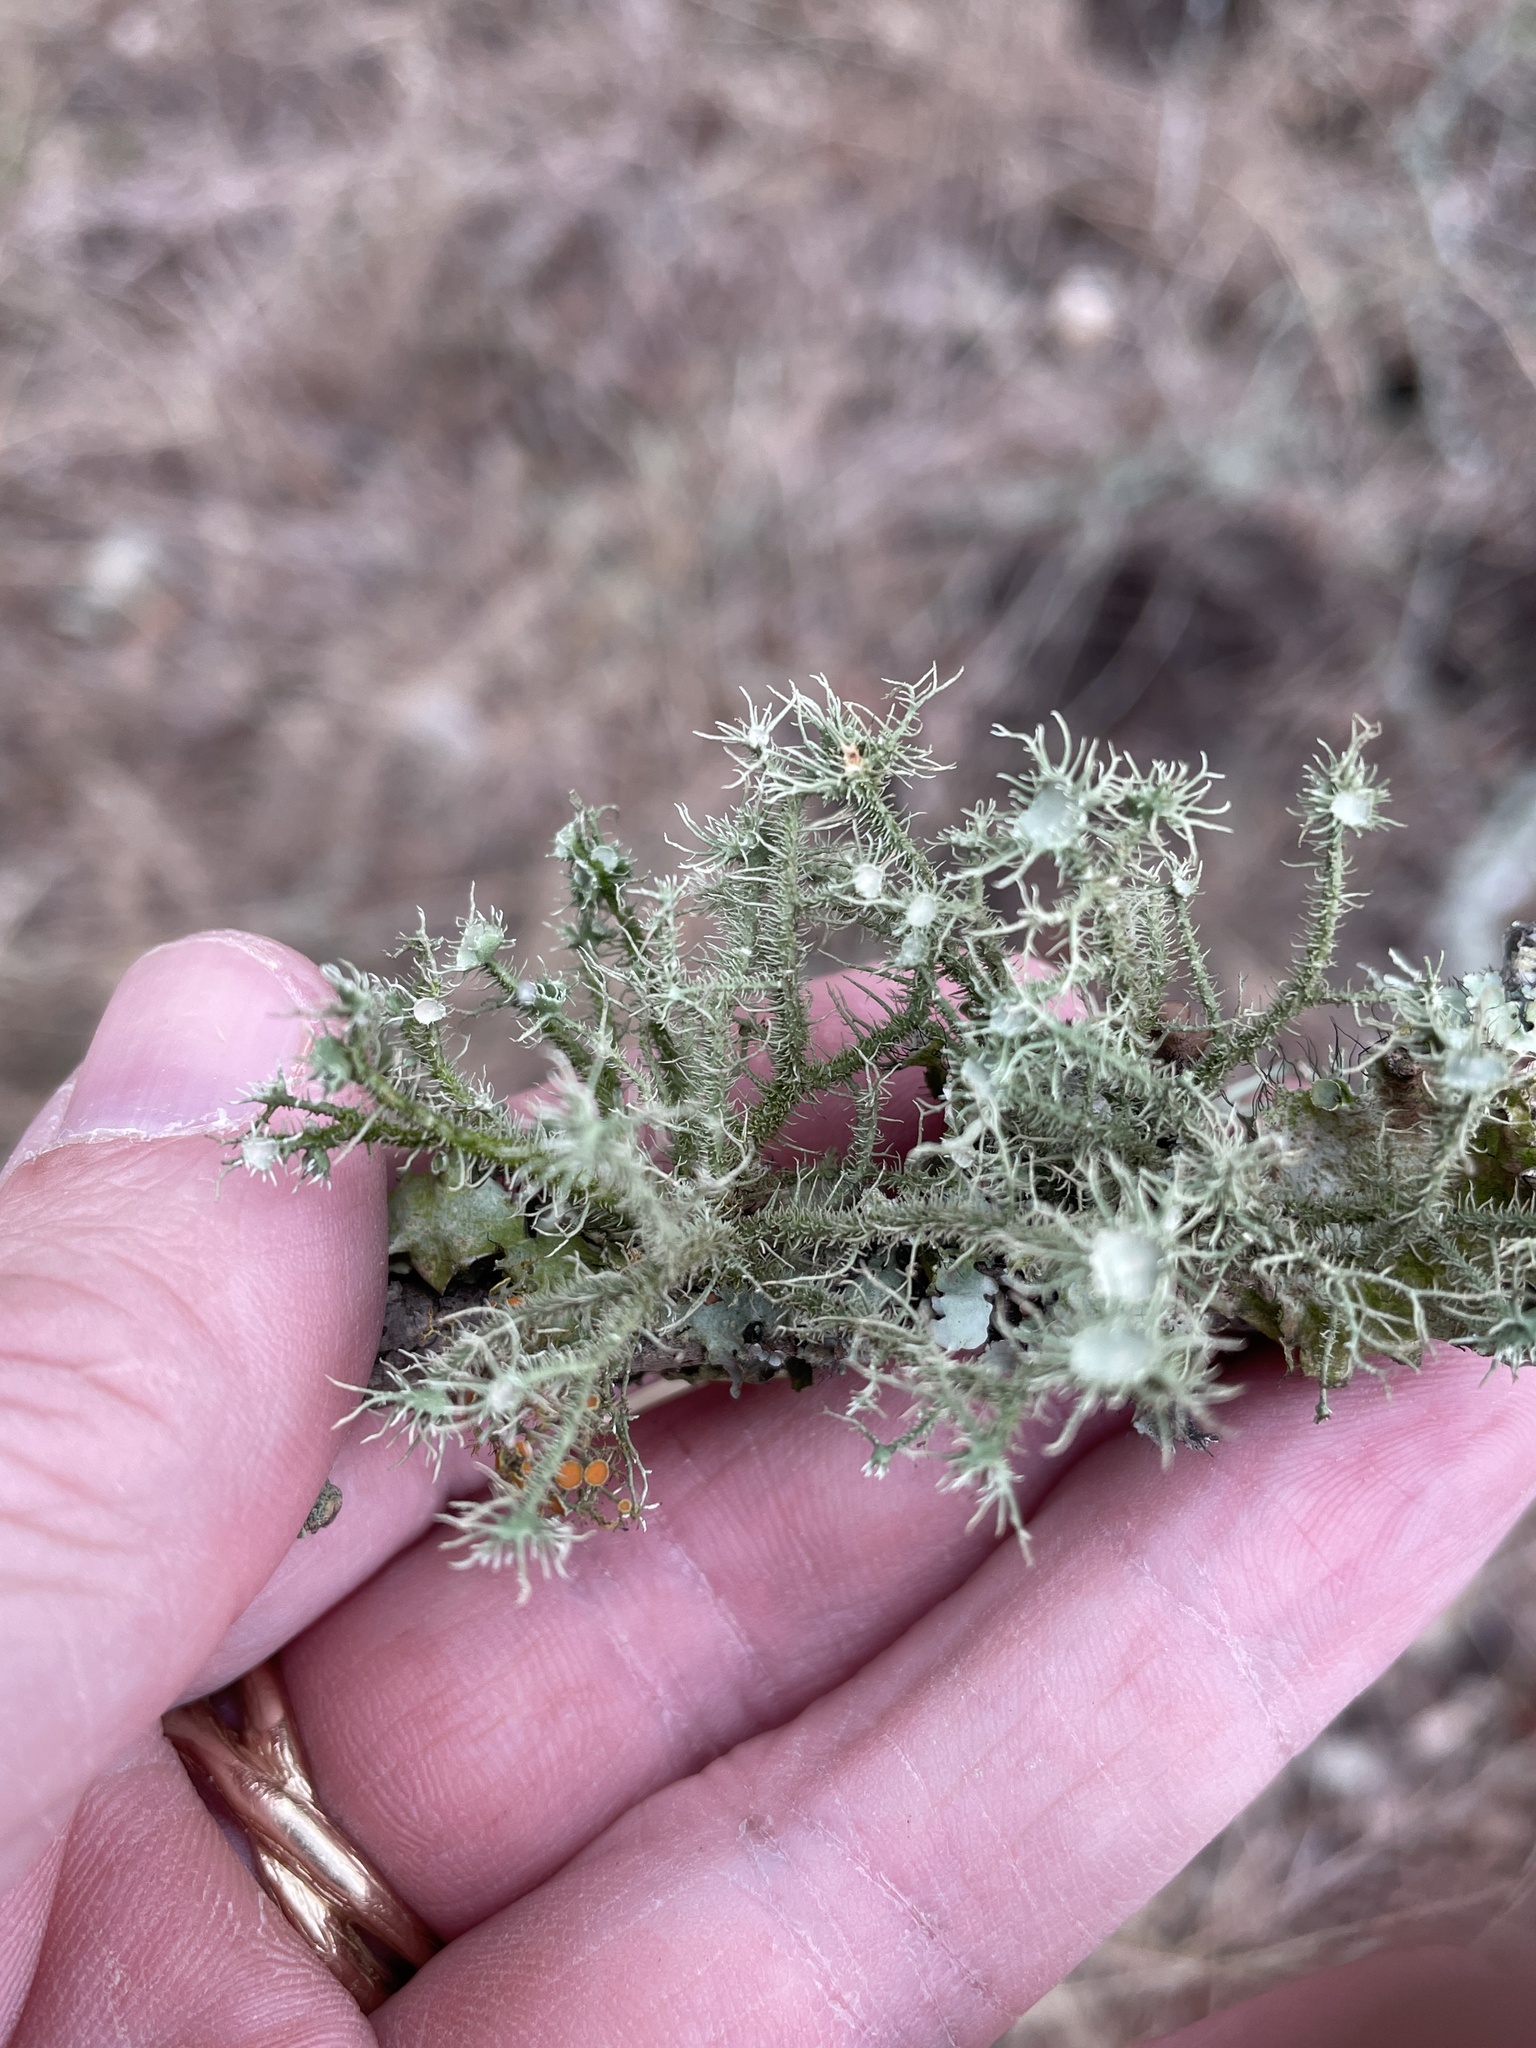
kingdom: Fungi
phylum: Ascomycota
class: Lecanoromycetes
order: Lecanorales
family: Parmeliaceae
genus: Usnea
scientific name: Usnea strigosa
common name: Bushy beard lichen
